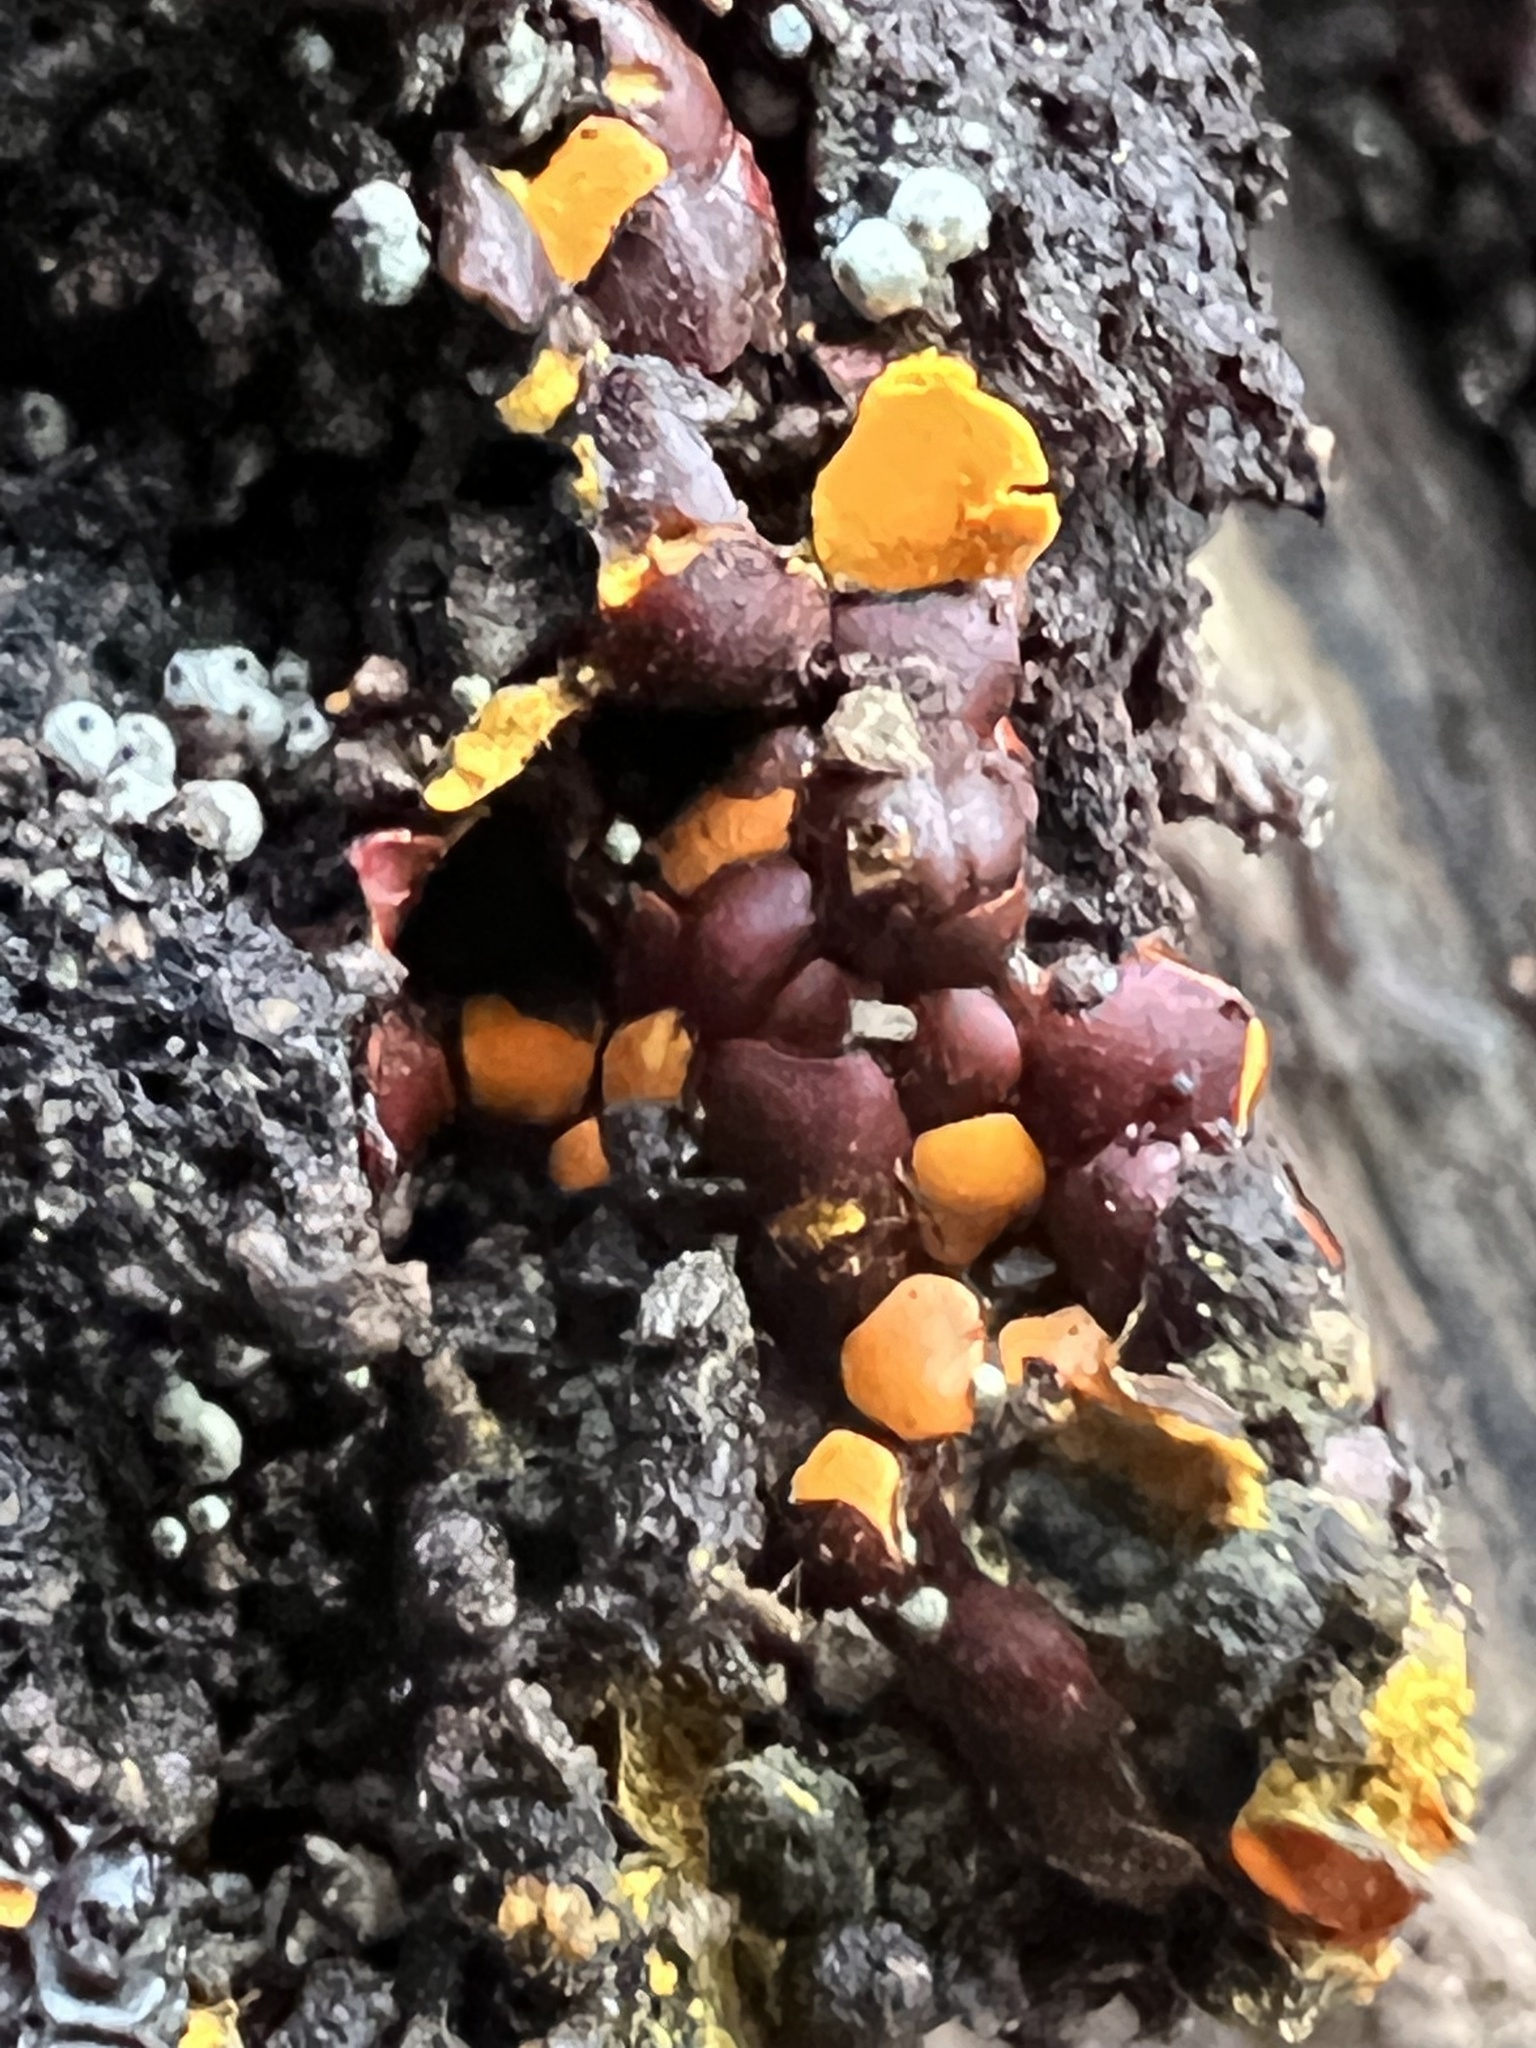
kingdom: Protozoa
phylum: Mycetozoa
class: Myxomycetes
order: Trichiales
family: Trichiaceae
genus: Perichaena
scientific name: Perichaena depressa
